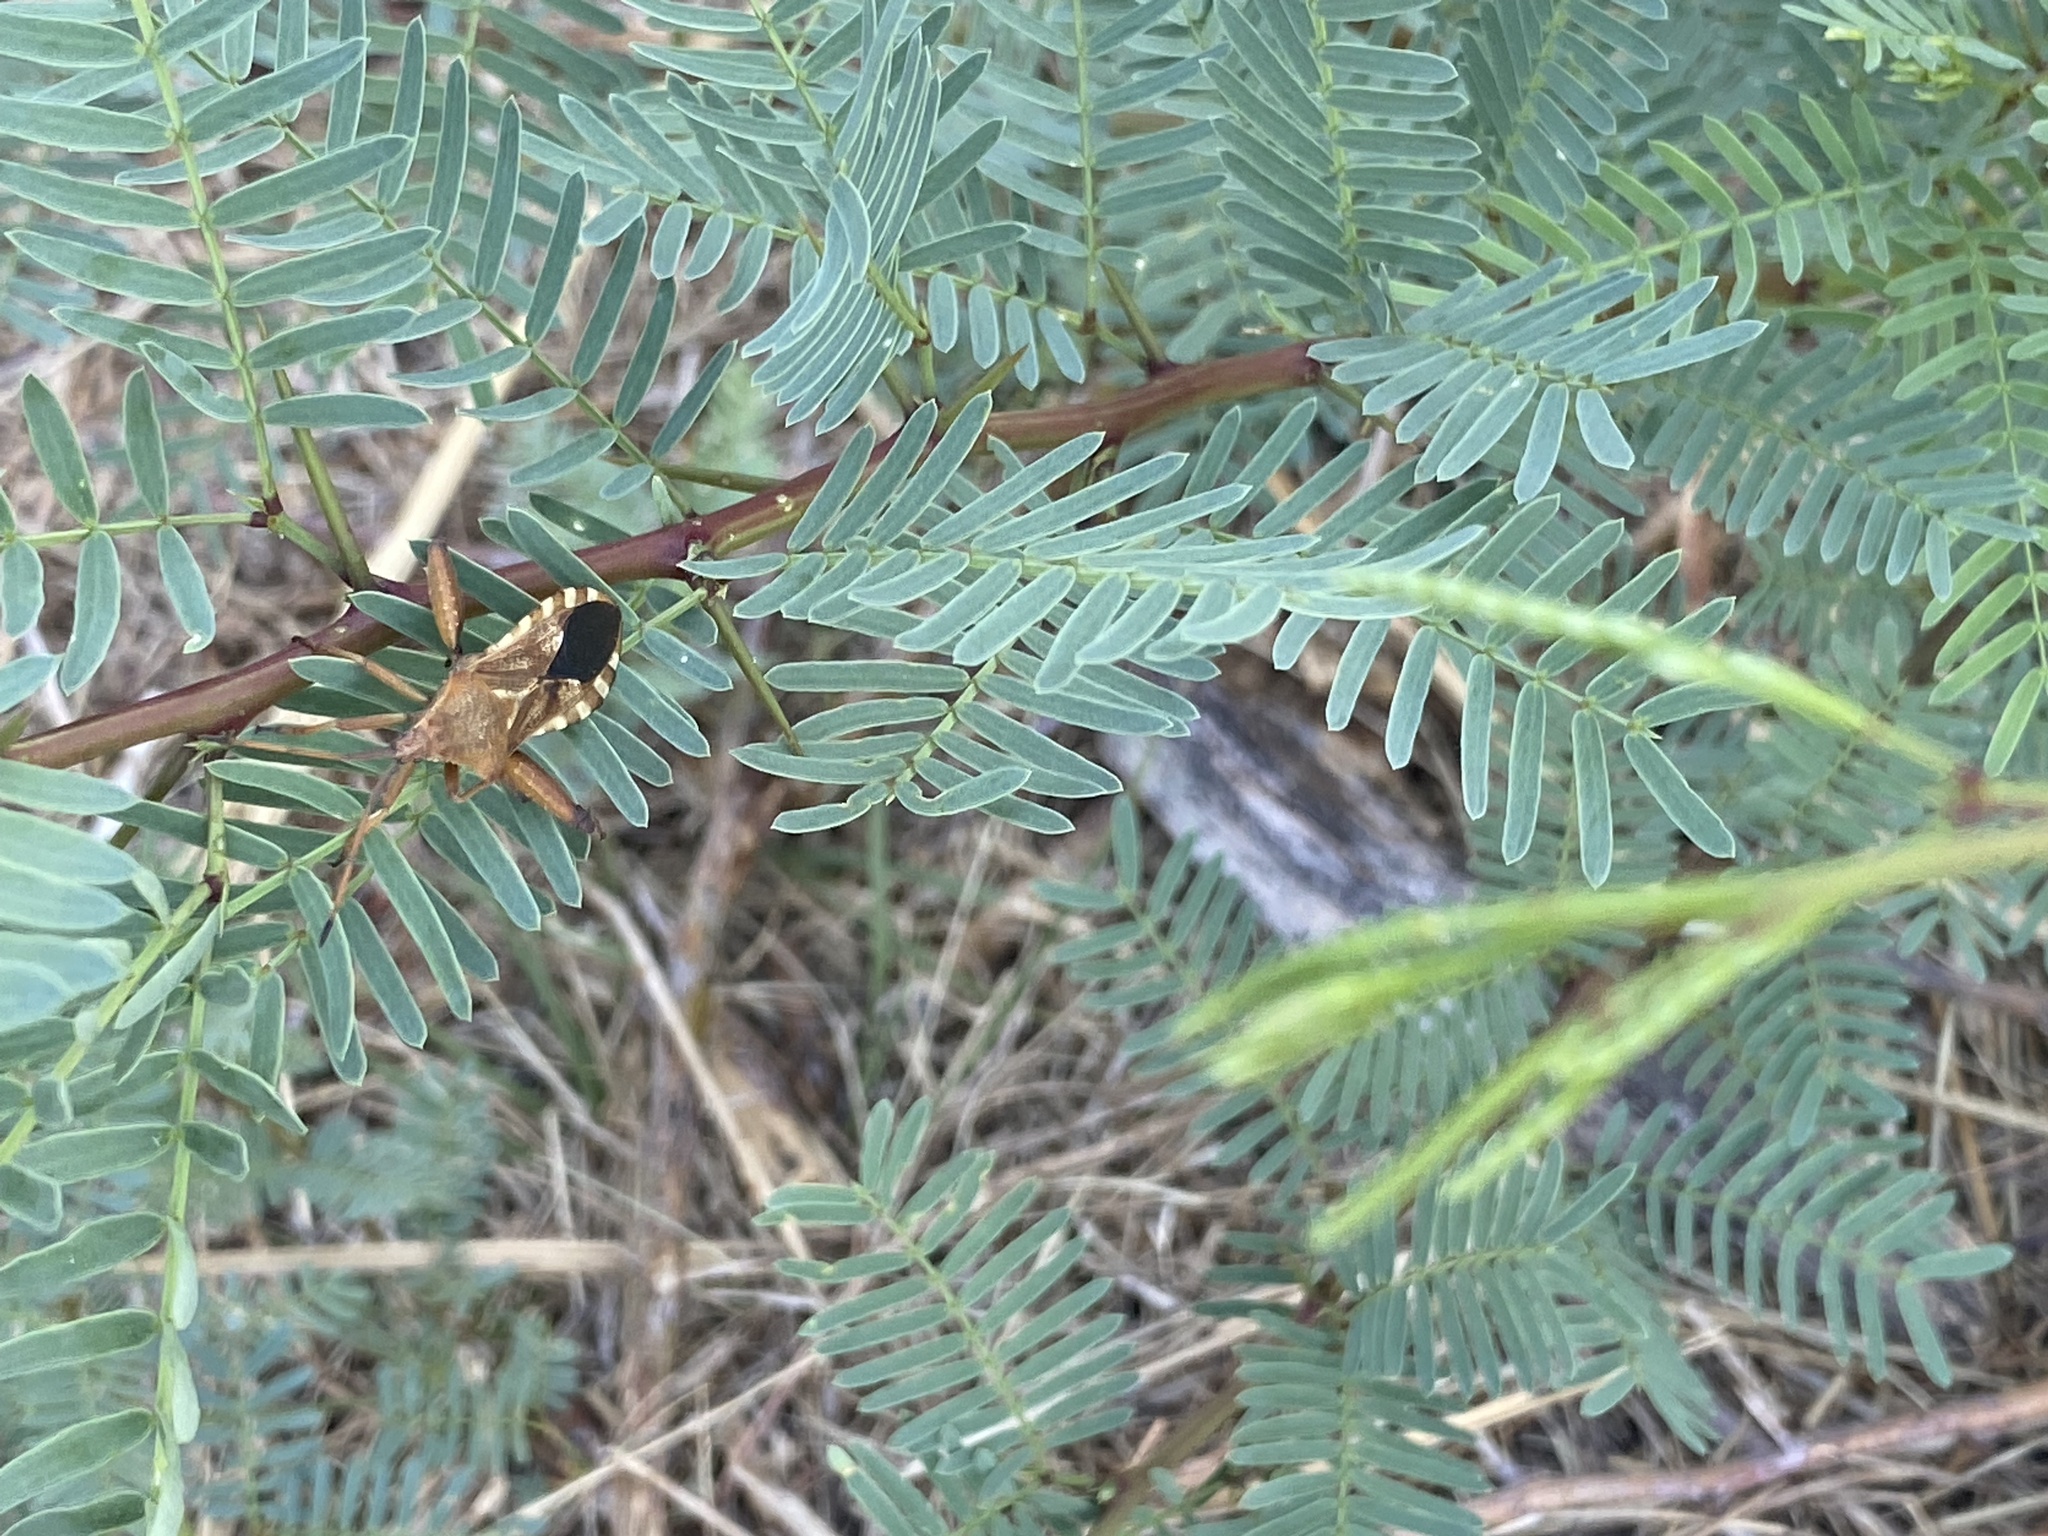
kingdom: Animalia
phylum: Arthropoda
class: Insecta
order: Hemiptera
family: Coreidae
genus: Mozena
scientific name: Mozena obtusa
